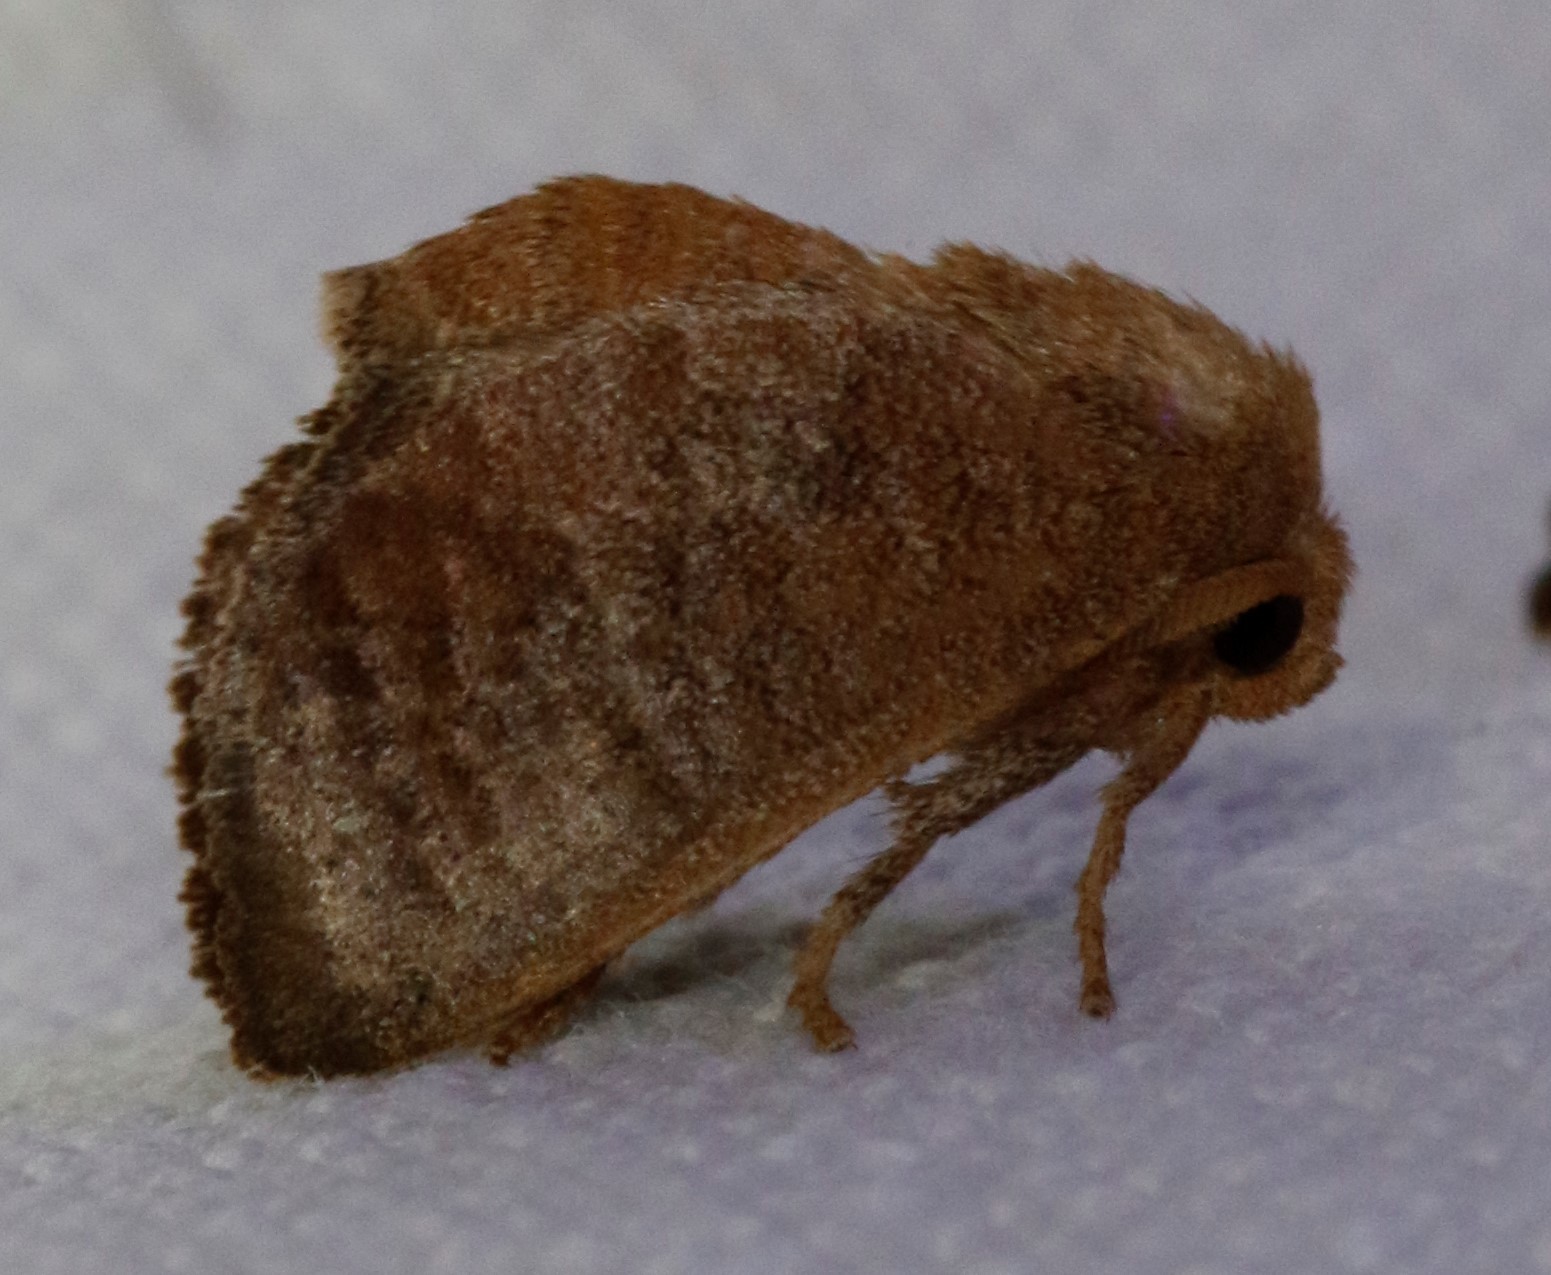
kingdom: Animalia
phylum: Arthropoda
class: Insecta
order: Lepidoptera
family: Limacodidae
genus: Isa
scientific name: Isa textula
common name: Crowned slug moth
